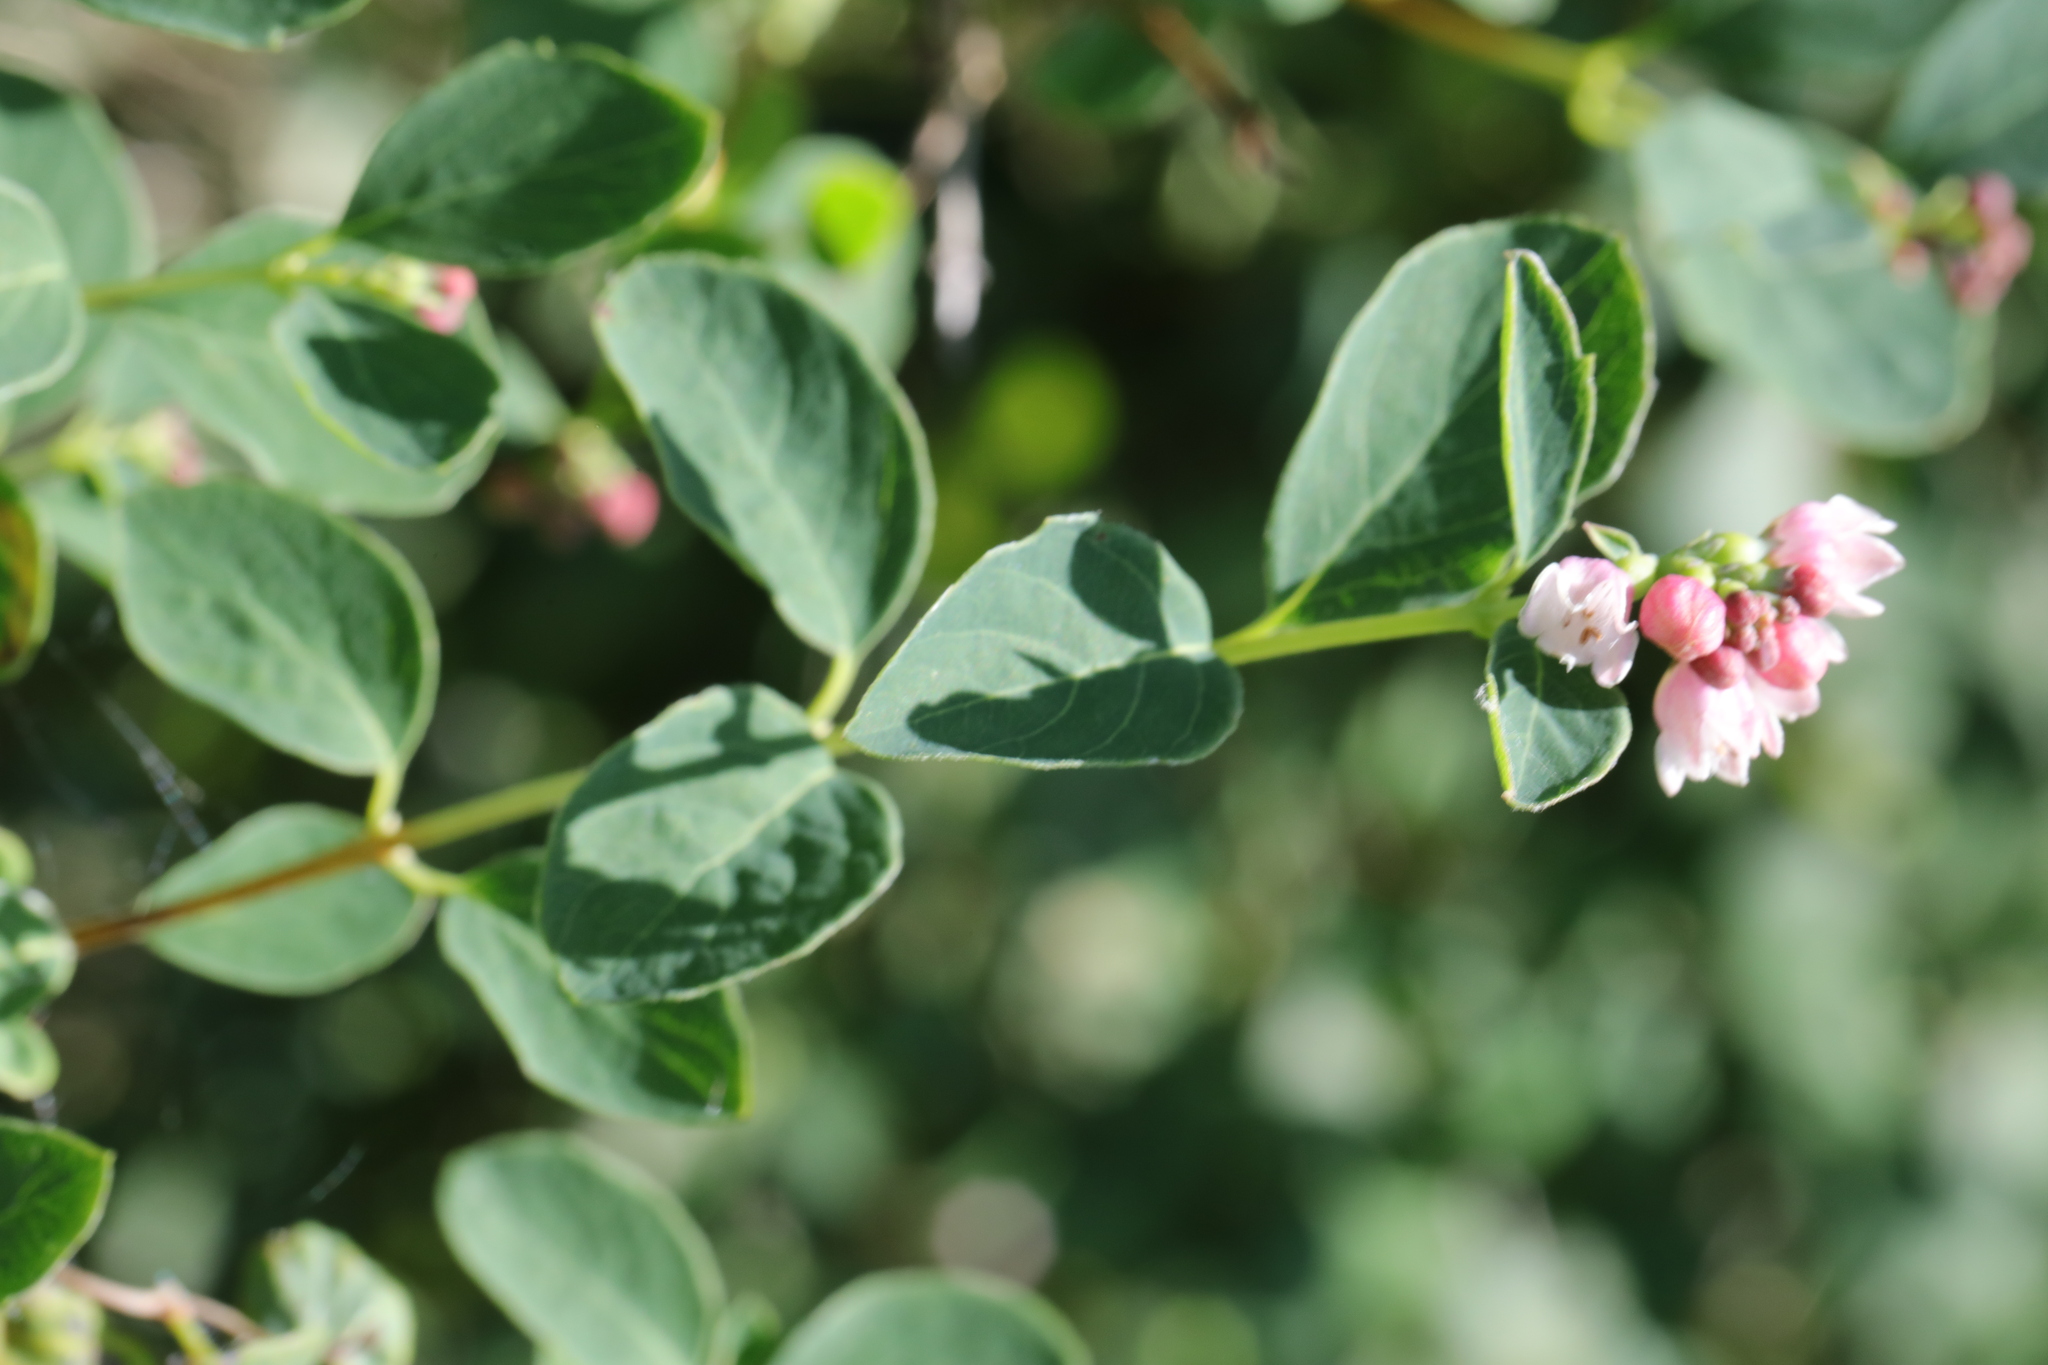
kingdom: Plantae
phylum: Tracheophyta
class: Magnoliopsida
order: Dipsacales
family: Caprifoliaceae
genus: Symphoricarpos
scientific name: Symphoricarpos albus
